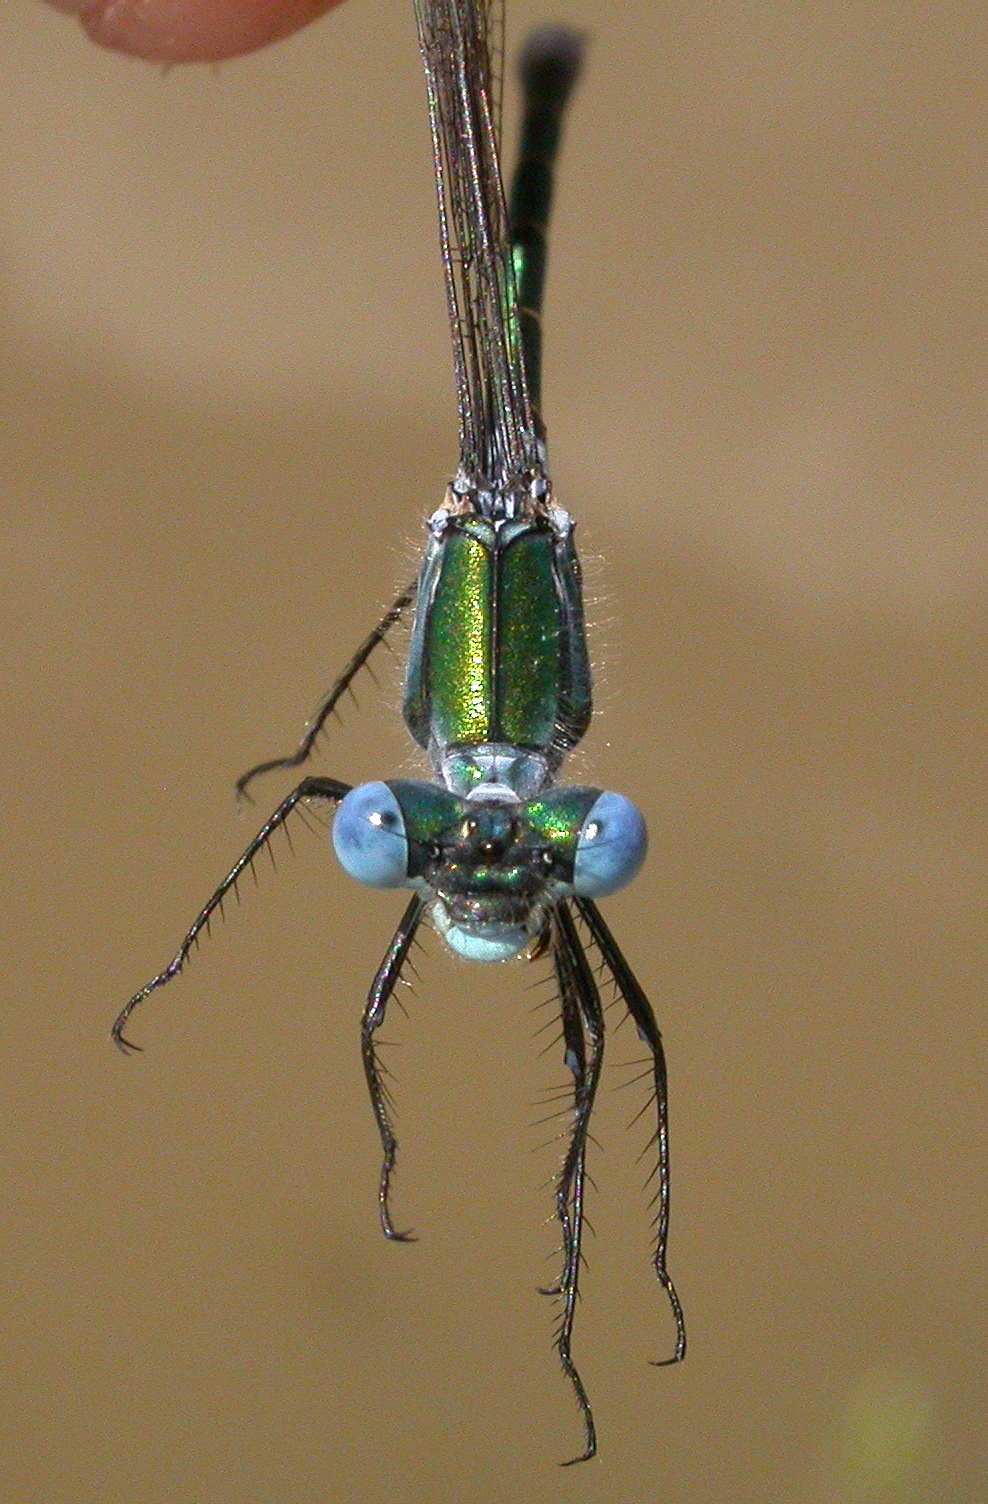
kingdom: Animalia
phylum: Arthropoda
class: Insecta
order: Odonata
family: Lestidae
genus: Lestes
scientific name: Lestes dryas
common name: Scarce emerald damselfly
